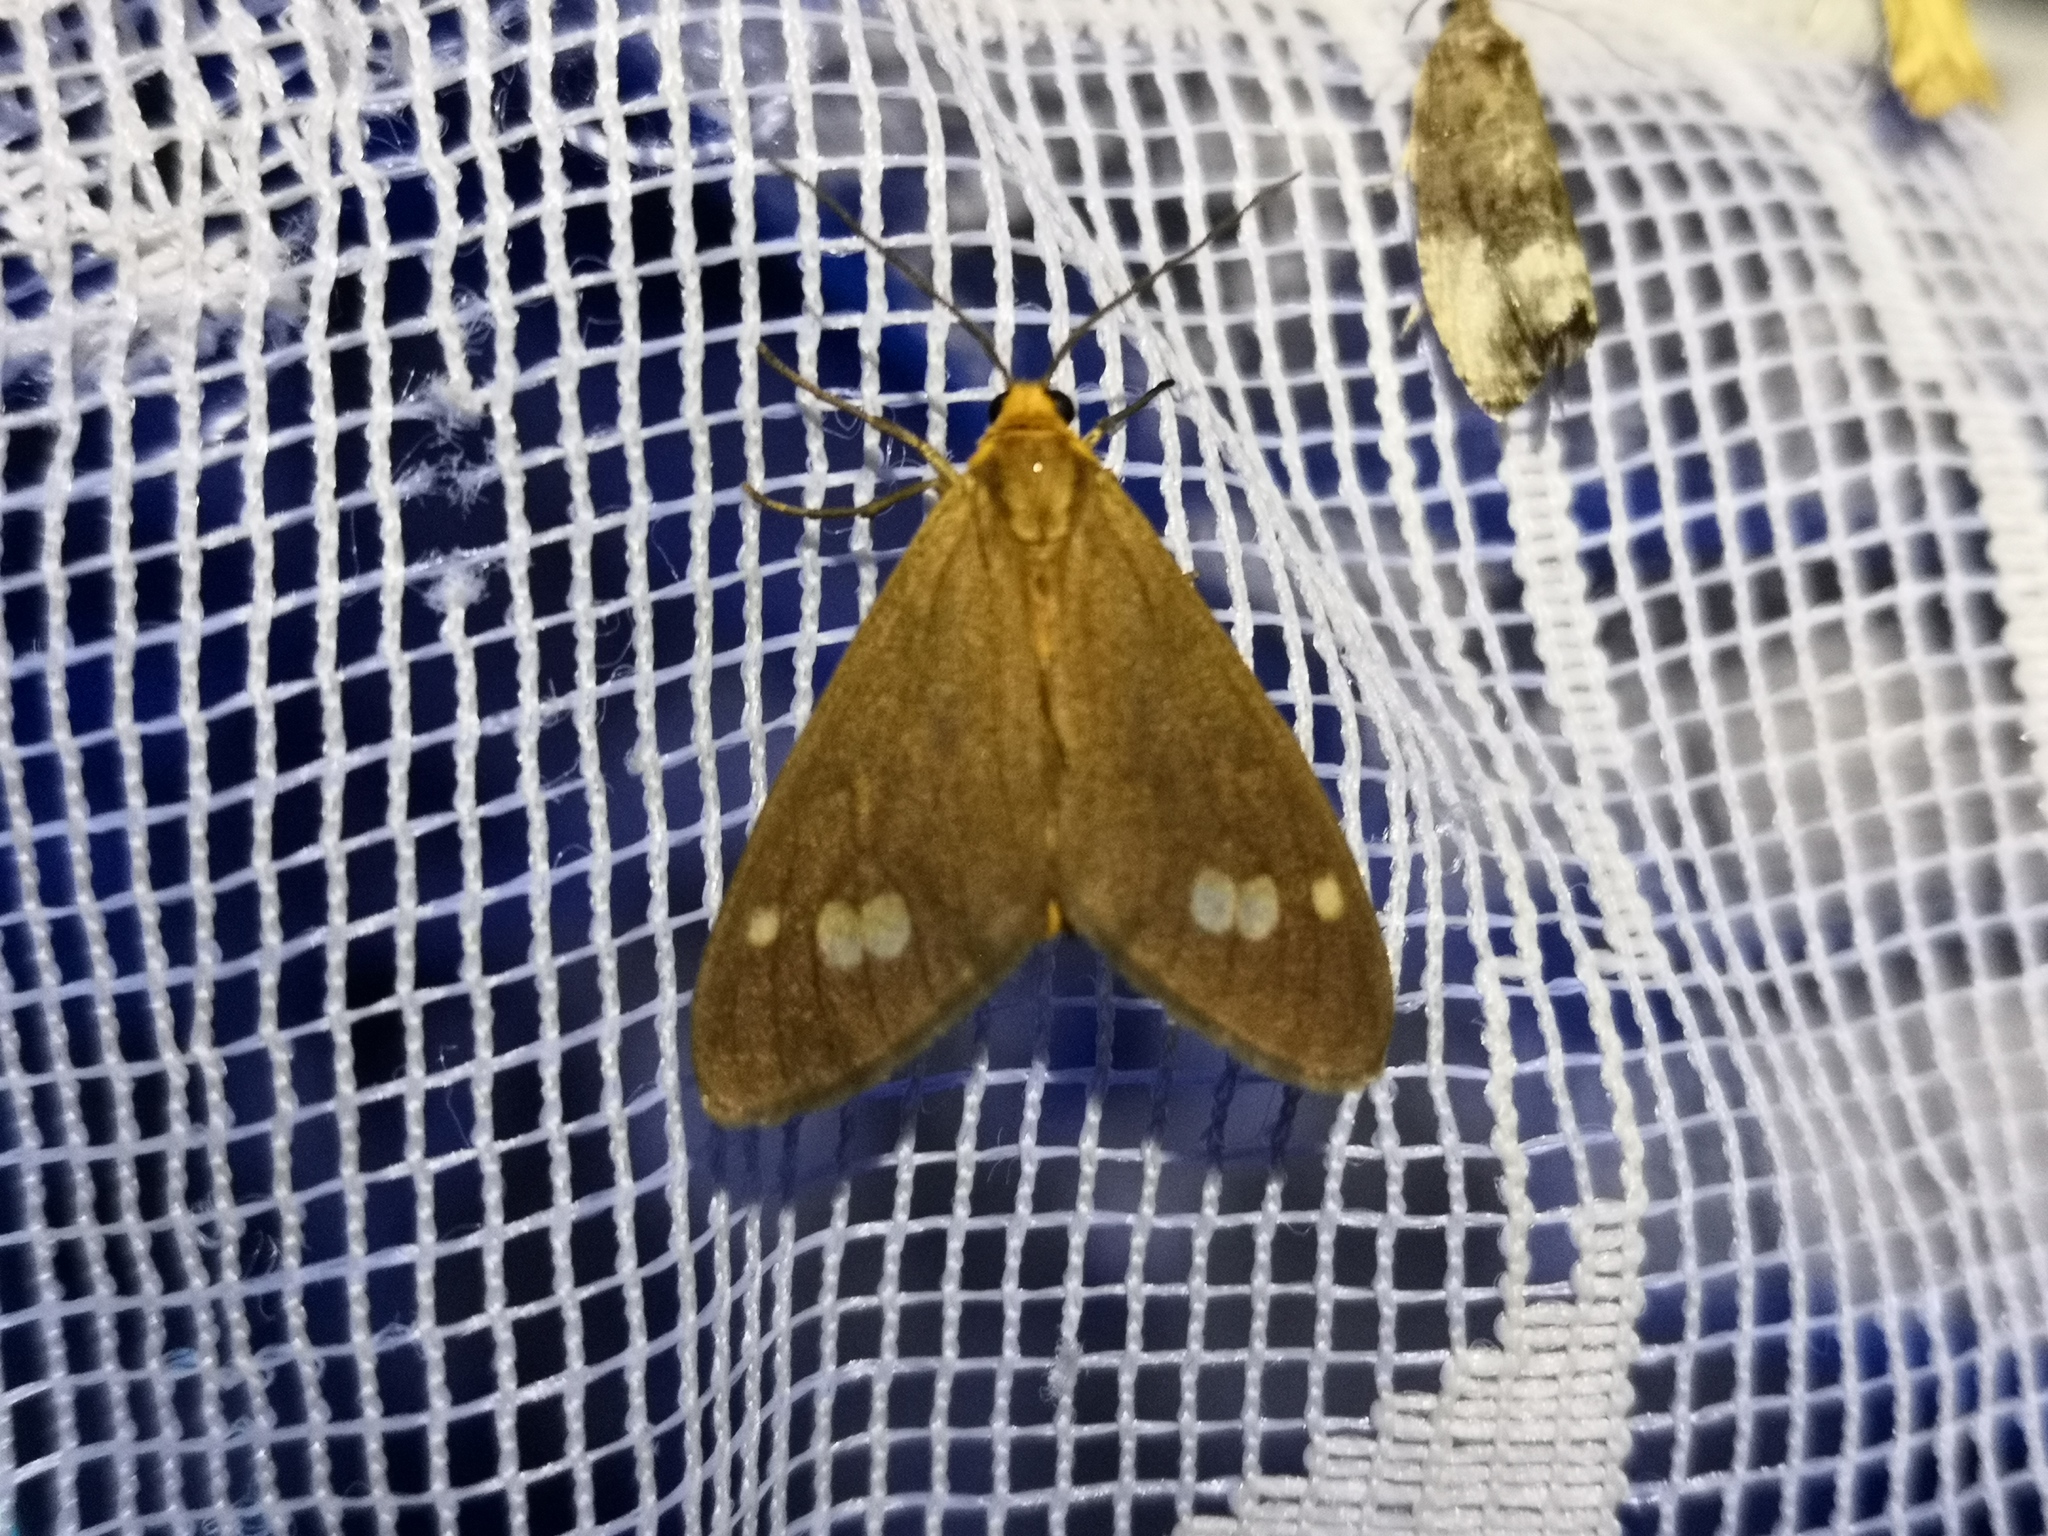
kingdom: Animalia
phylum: Arthropoda
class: Insecta
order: Lepidoptera
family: Erebidae
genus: Dysauxes
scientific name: Dysauxes ancilla
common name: The handmaid
